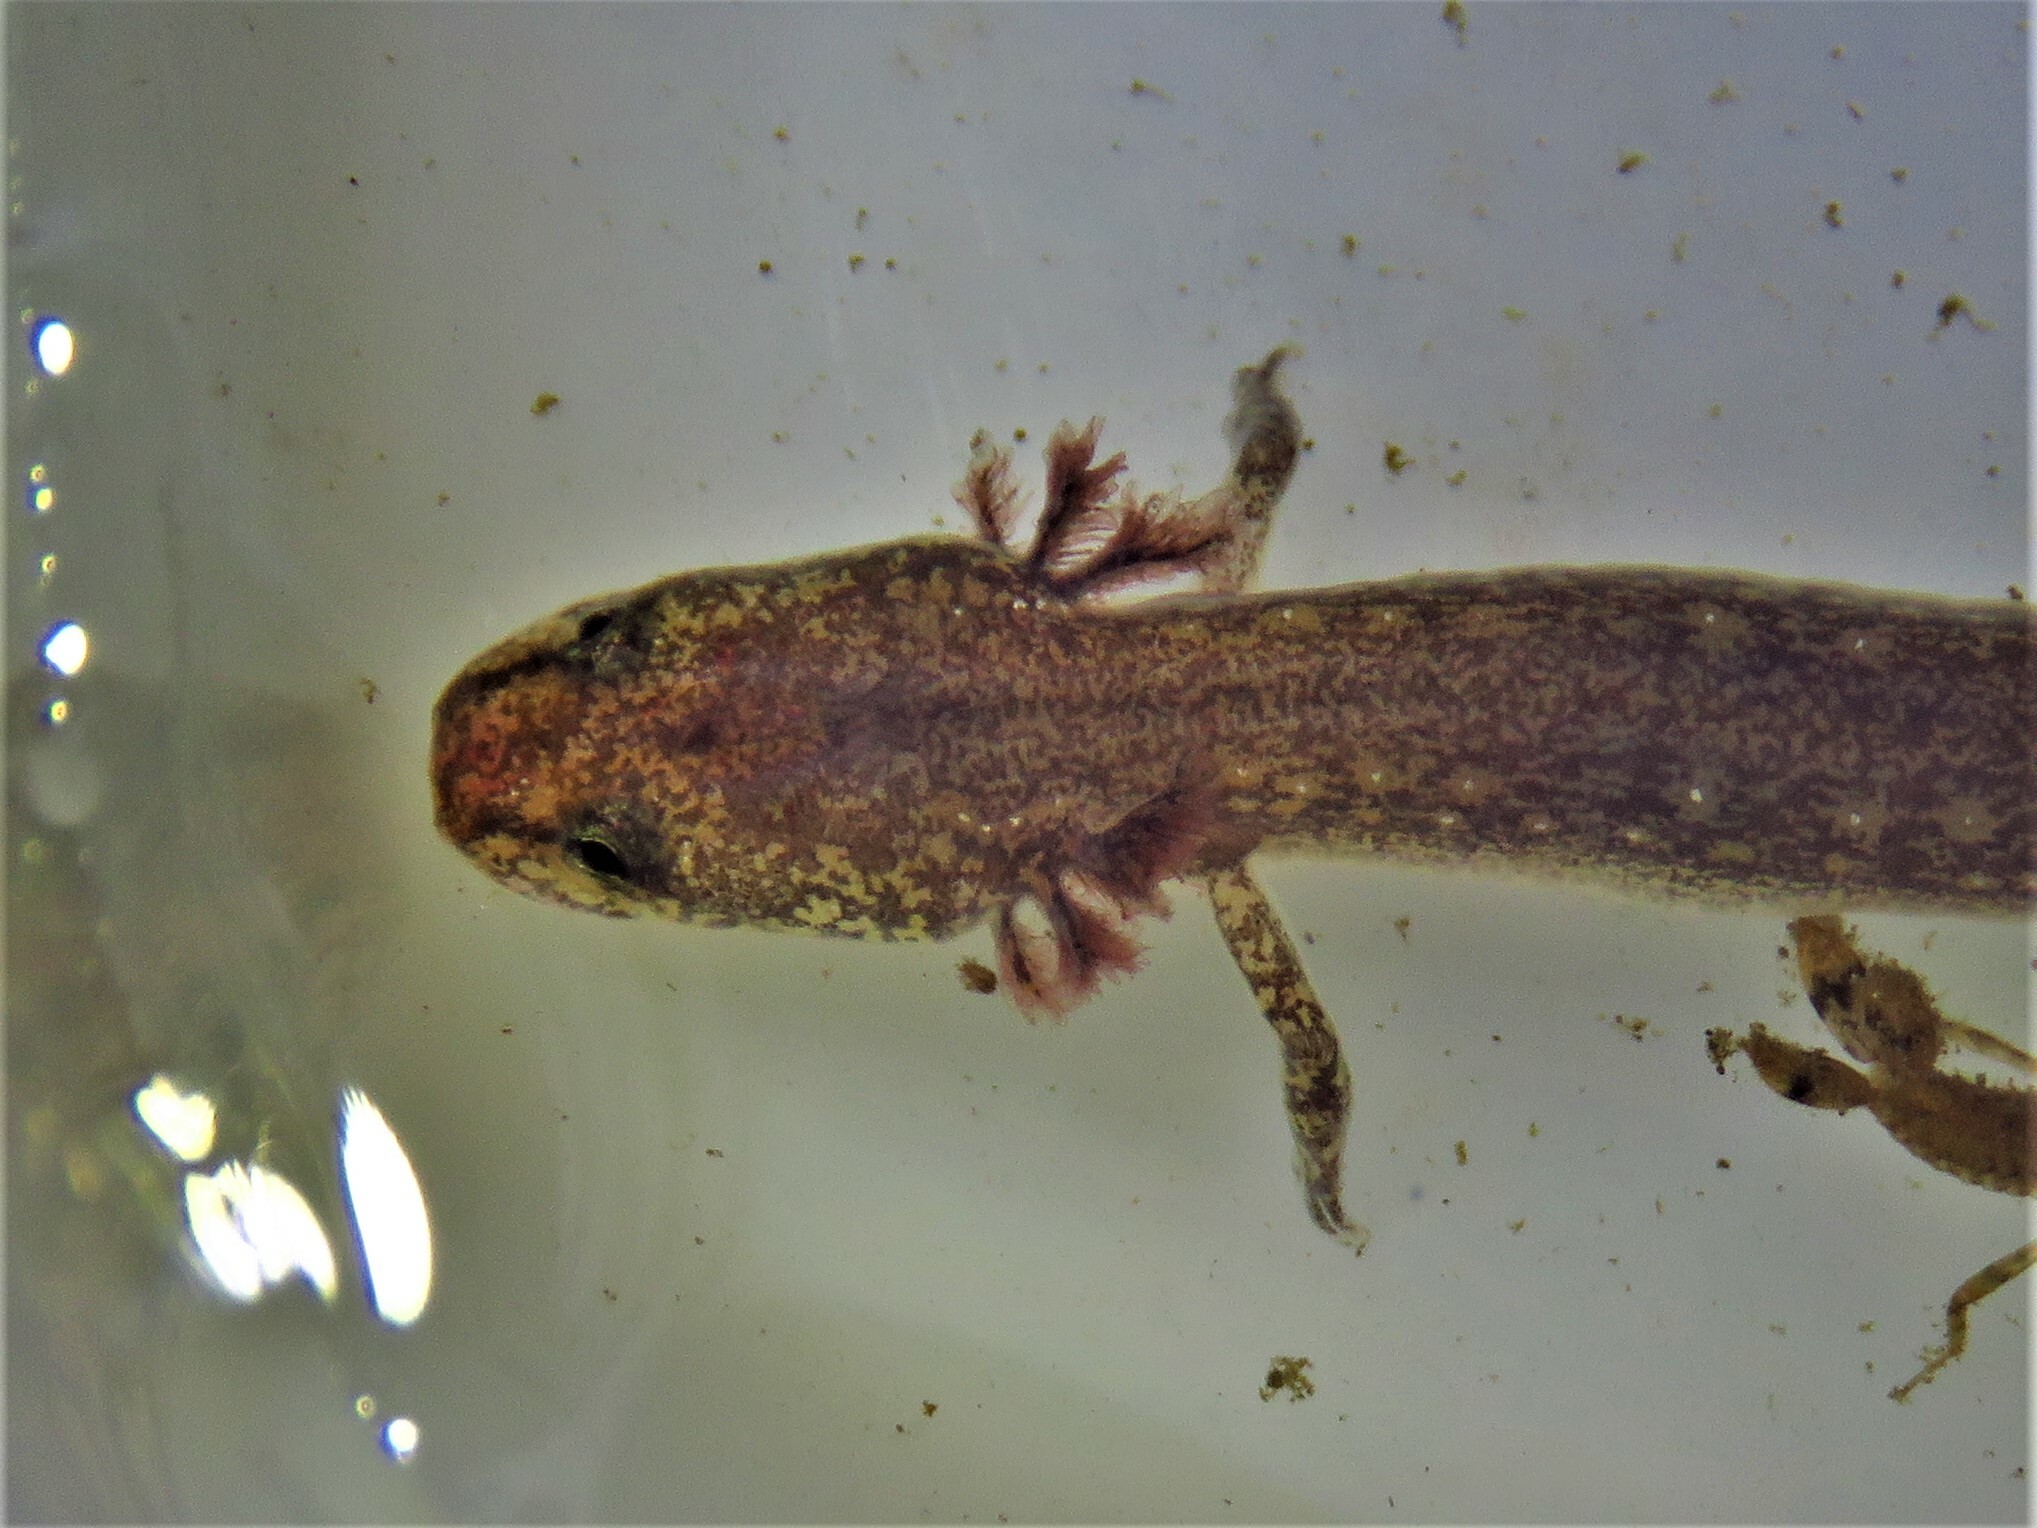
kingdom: Animalia
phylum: Chordata
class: Amphibia
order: Caudata
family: Plethodontidae
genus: Eurycea
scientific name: Eurycea tonkawae
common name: Jollyville plateau salamander
